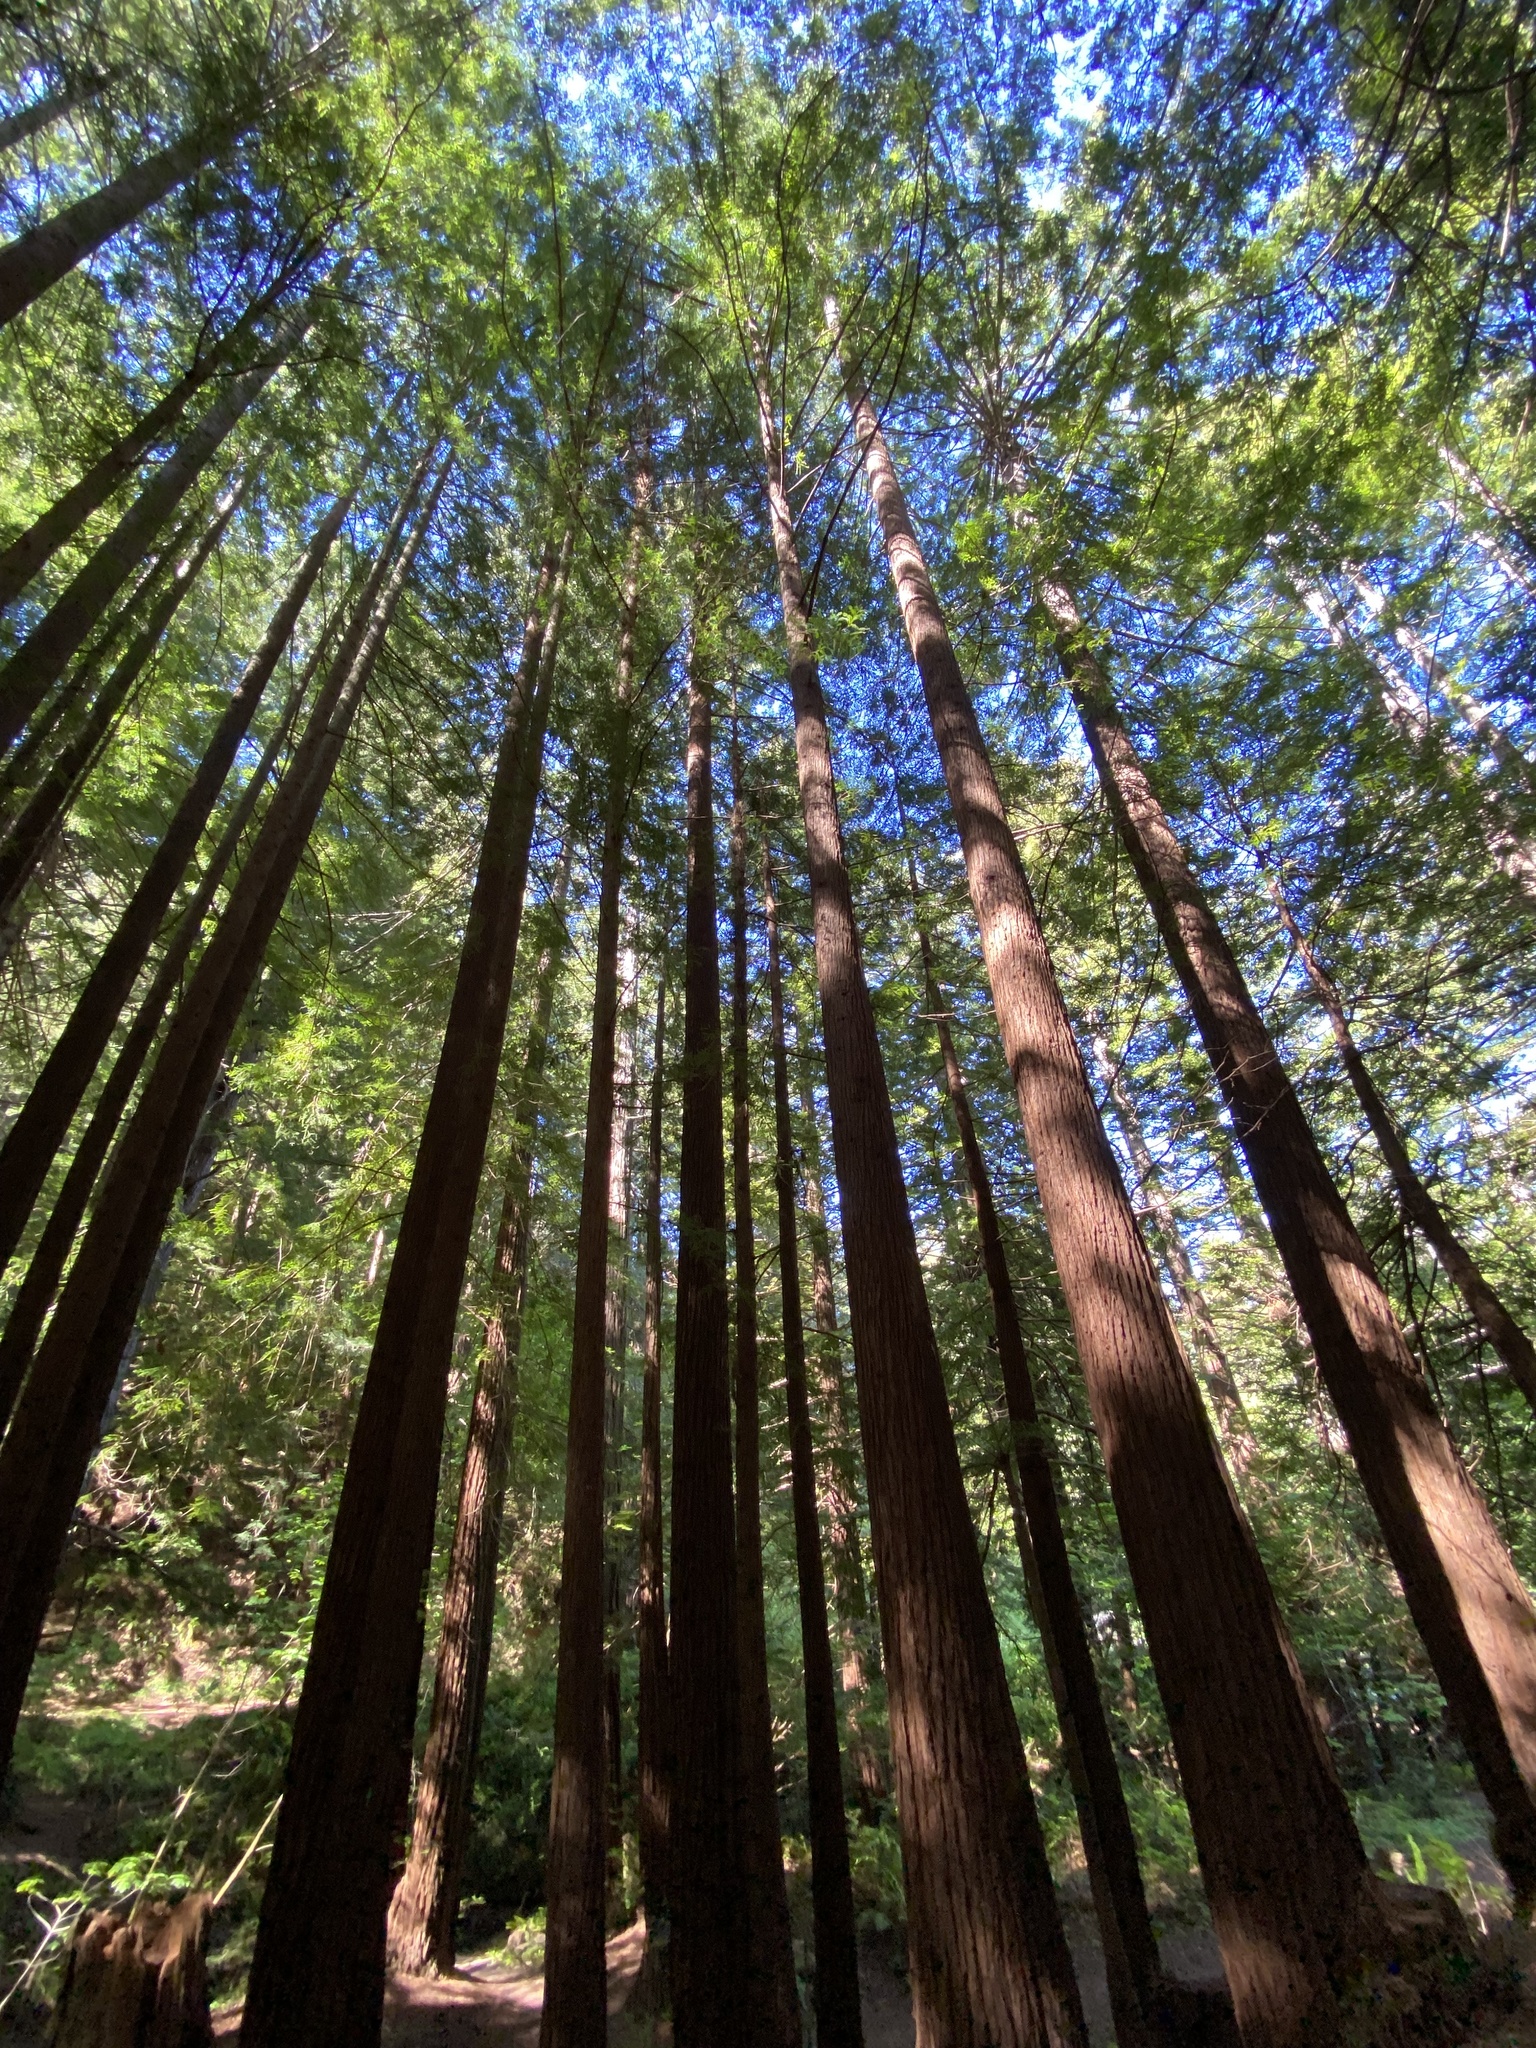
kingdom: Plantae
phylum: Tracheophyta
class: Pinopsida
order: Pinales
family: Cupressaceae
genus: Sequoia
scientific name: Sequoia sempervirens
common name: Coast redwood
